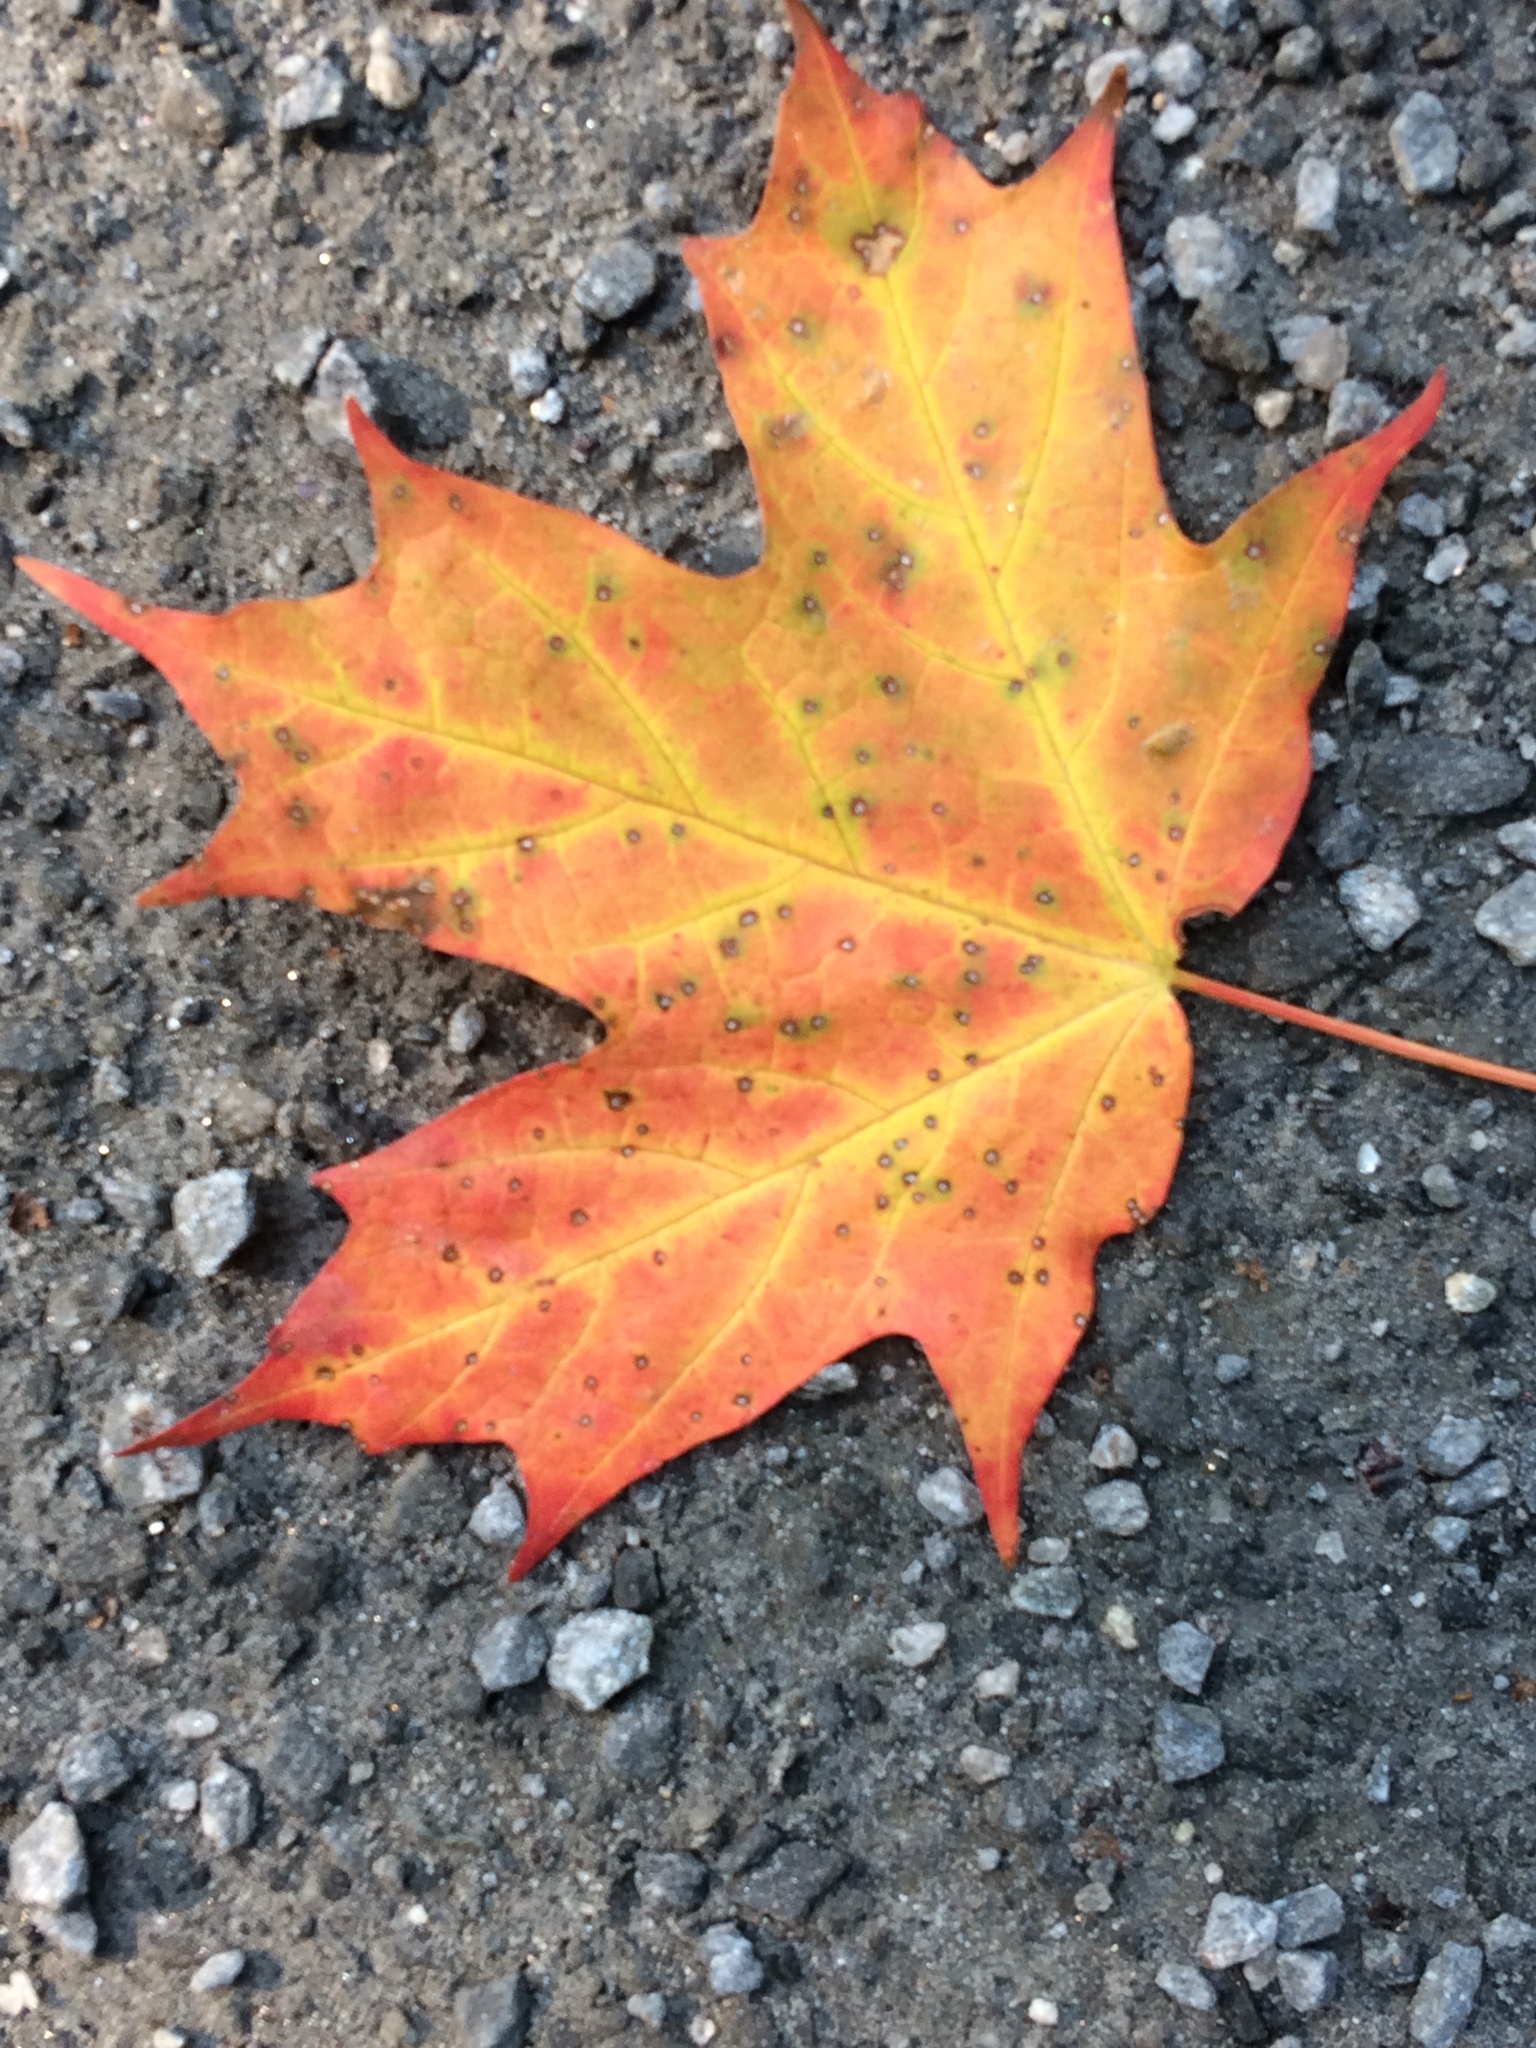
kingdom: Plantae
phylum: Tracheophyta
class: Magnoliopsida
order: Sapindales
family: Sapindaceae
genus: Acer
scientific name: Acer saccharum
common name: Sugar maple
